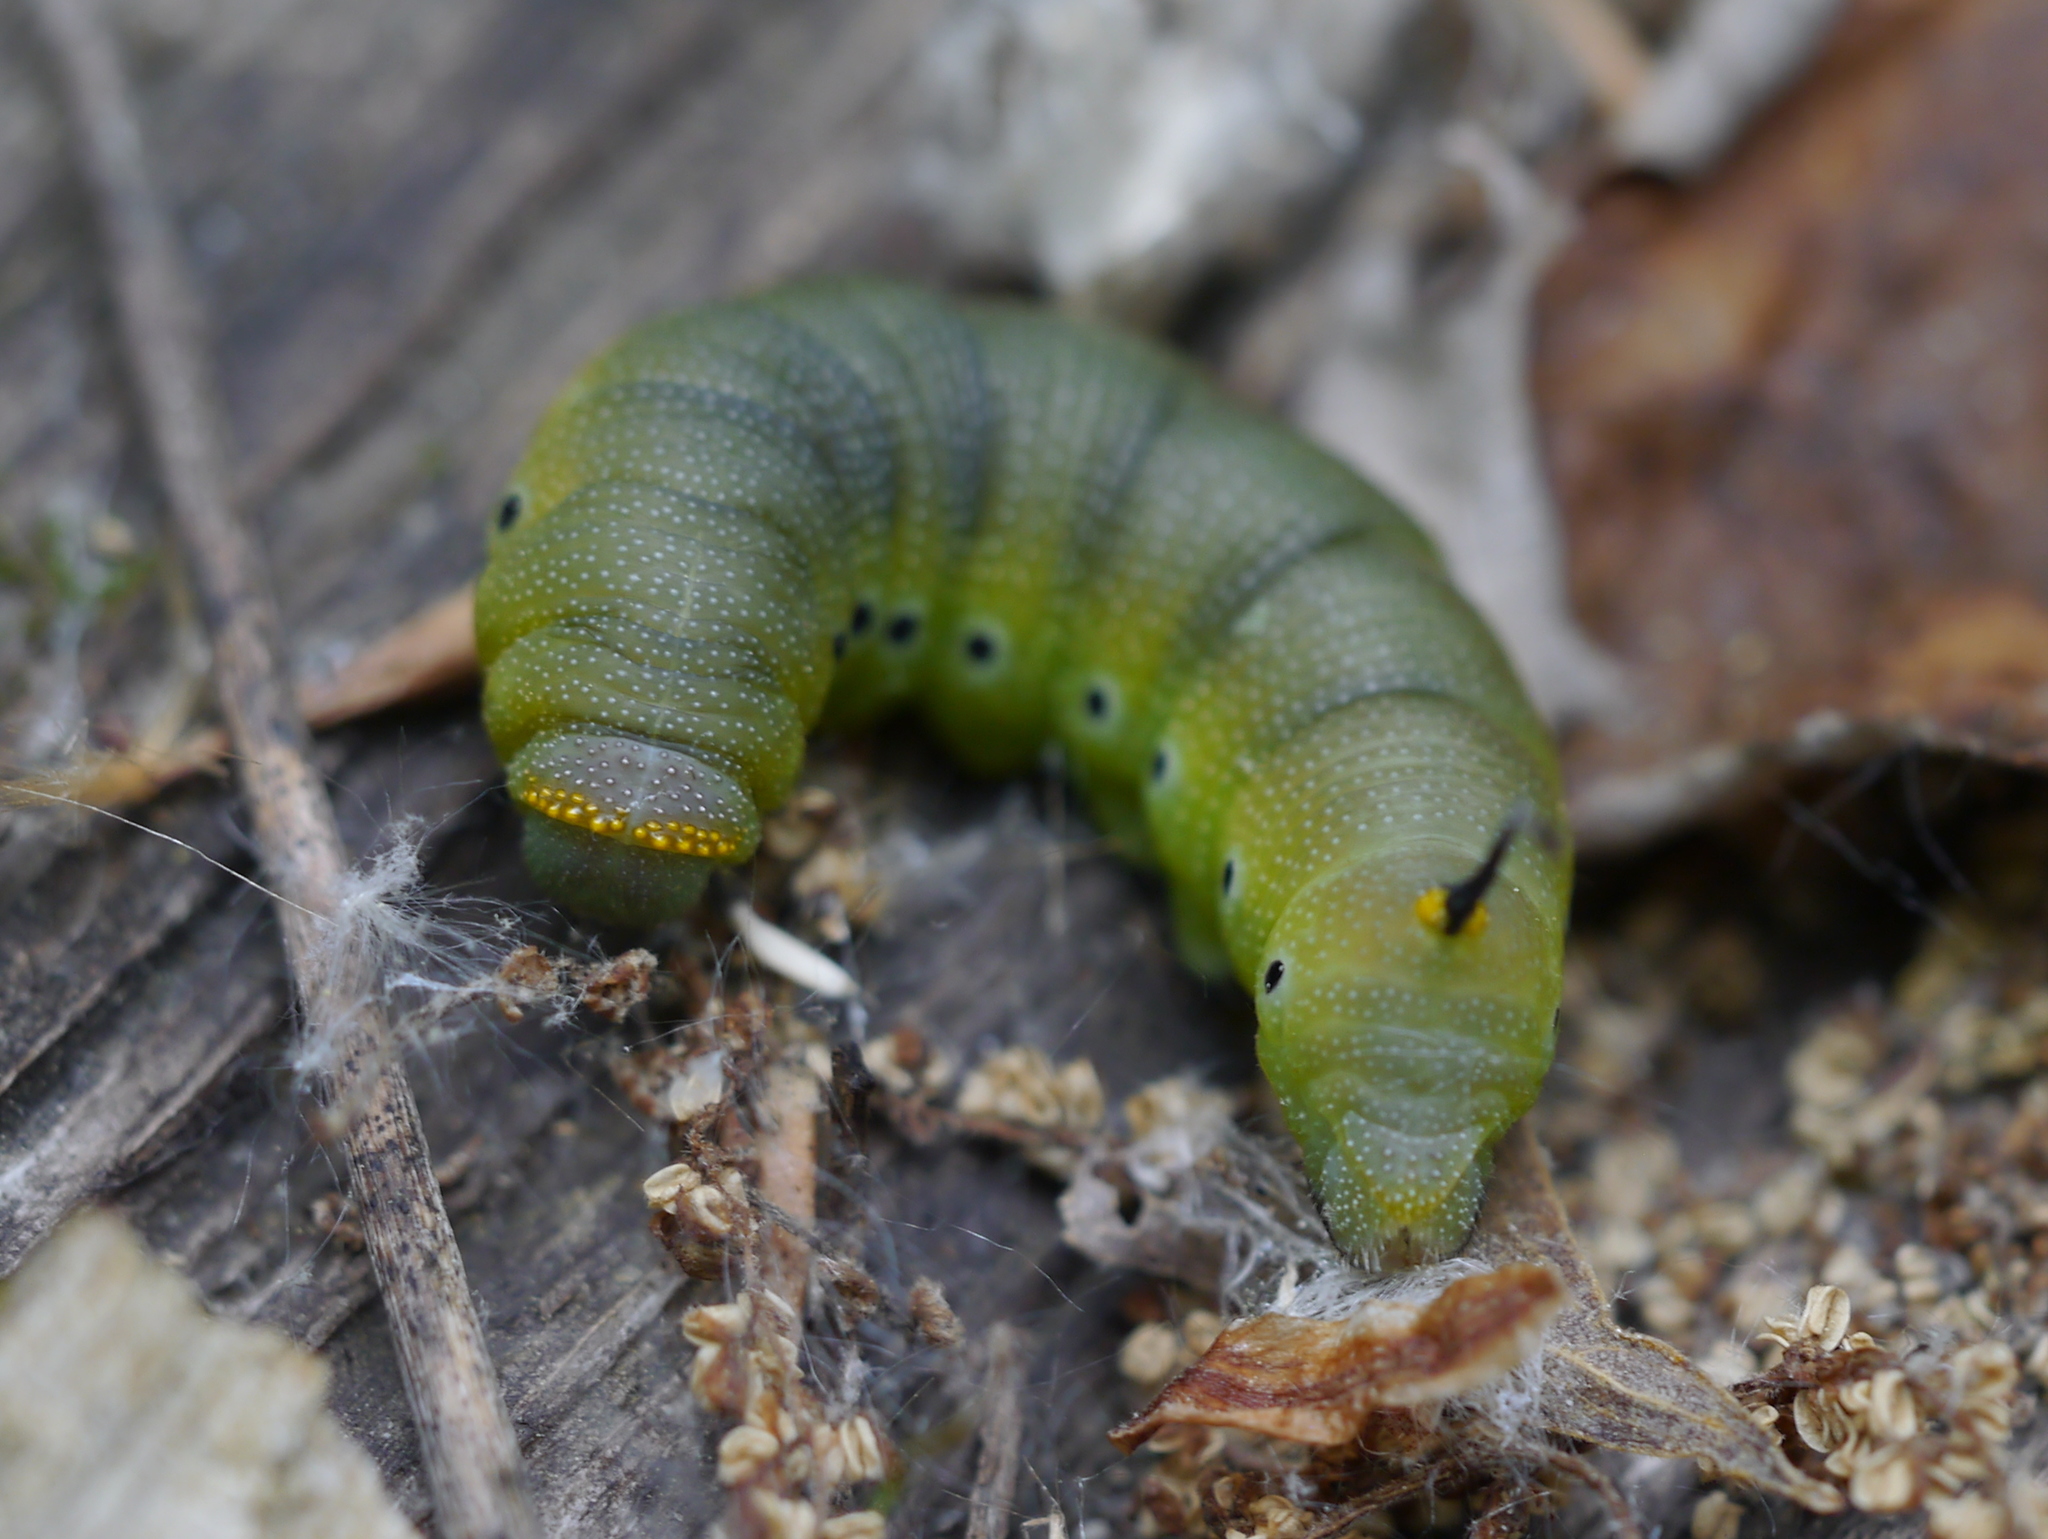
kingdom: Animalia
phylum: Arthropoda
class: Insecta
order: Lepidoptera
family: Sphingidae
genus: Hemaris
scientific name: Hemaris diffinis
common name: Bumblebee moth
